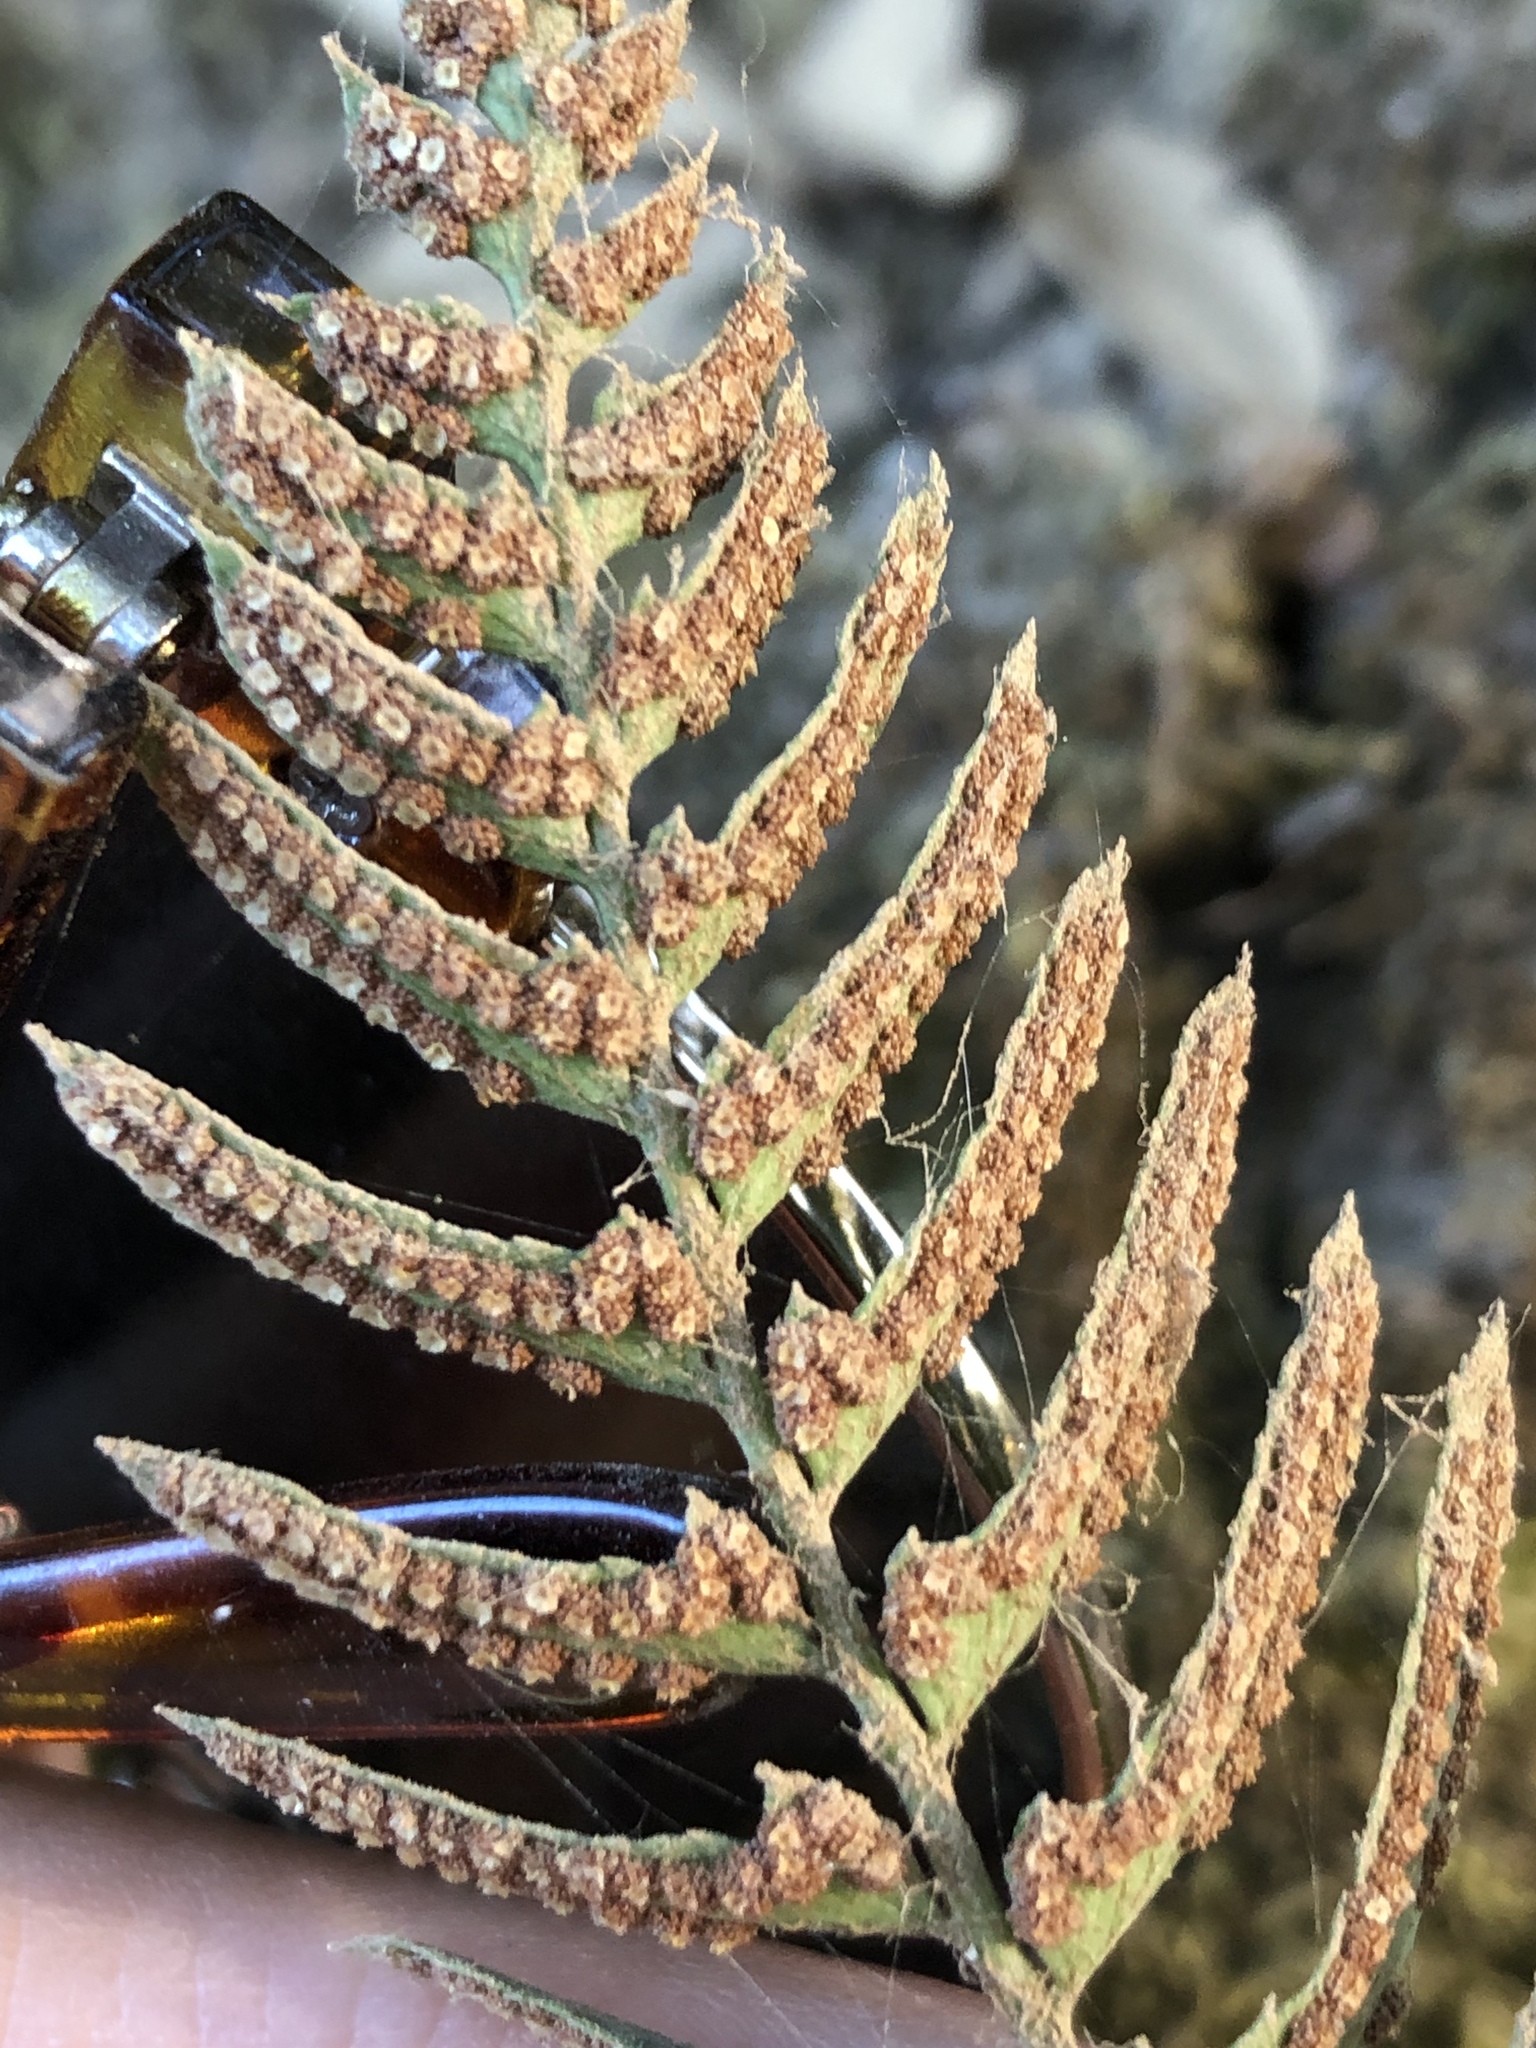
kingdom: Plantae
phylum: Tracheophyta
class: Polypodiopsida
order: Polypodiales
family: Dryopteridaceae
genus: Polystichum
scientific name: Polystichum imbricans
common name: Dwarf western sword fern
